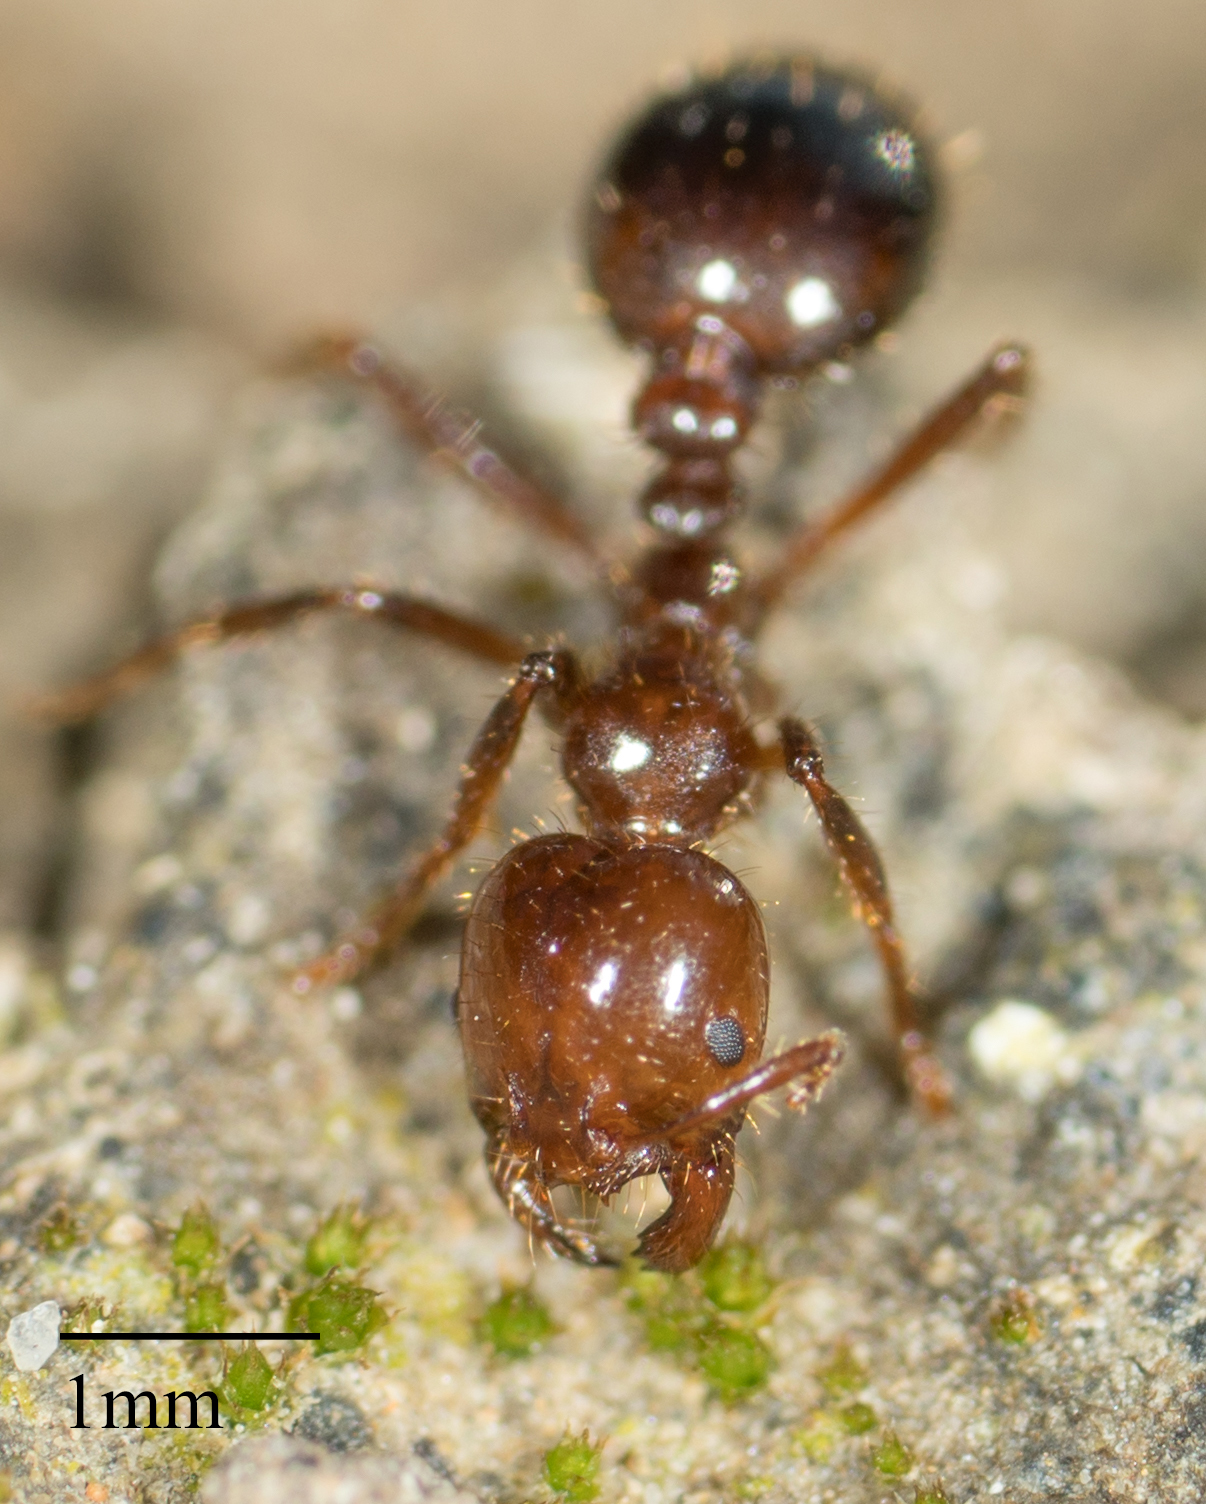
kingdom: Animalia
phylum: Arthropoda
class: Insecta
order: Hymenoptera
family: Formicidae
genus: Solenopsis
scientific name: Solenopsis invicta
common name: Red imported fire ant
